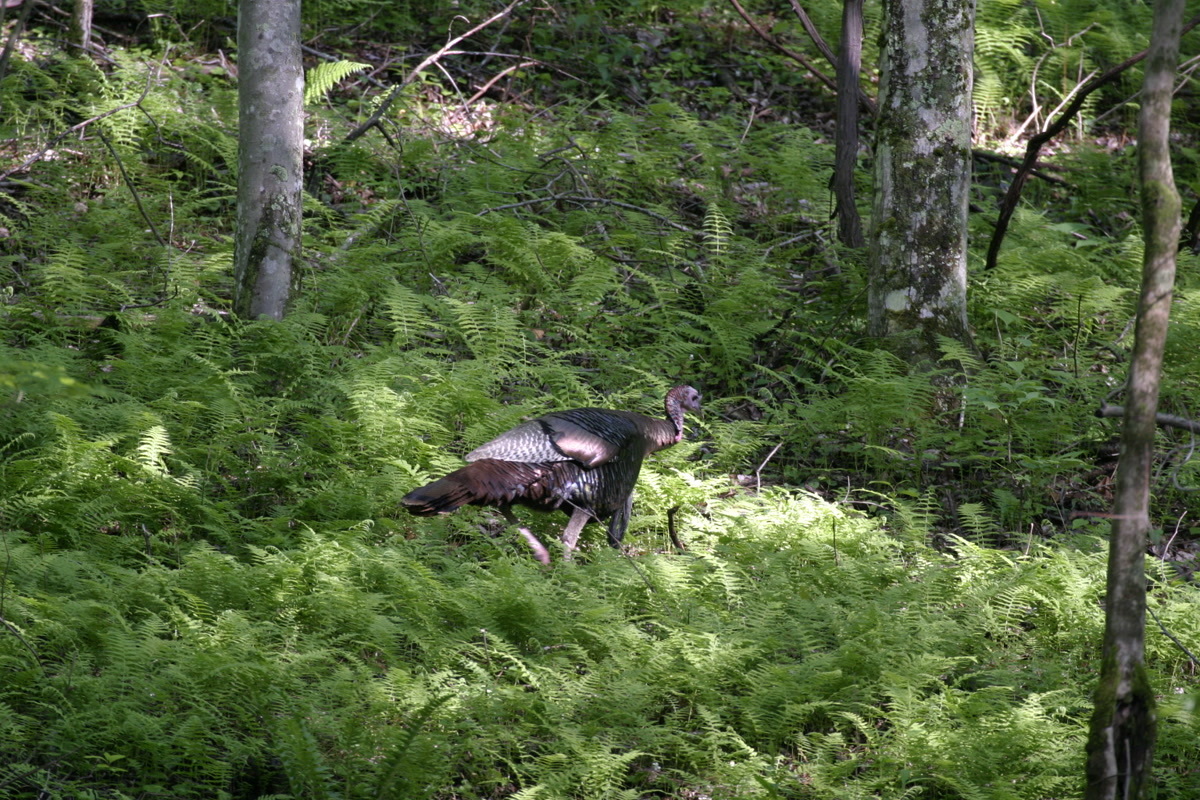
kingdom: Animalia
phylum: Chordata
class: Aves
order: Galliformes
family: Phasianidae
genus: Meleagris
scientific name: Meleagris gallopavo
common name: Wild turkey
